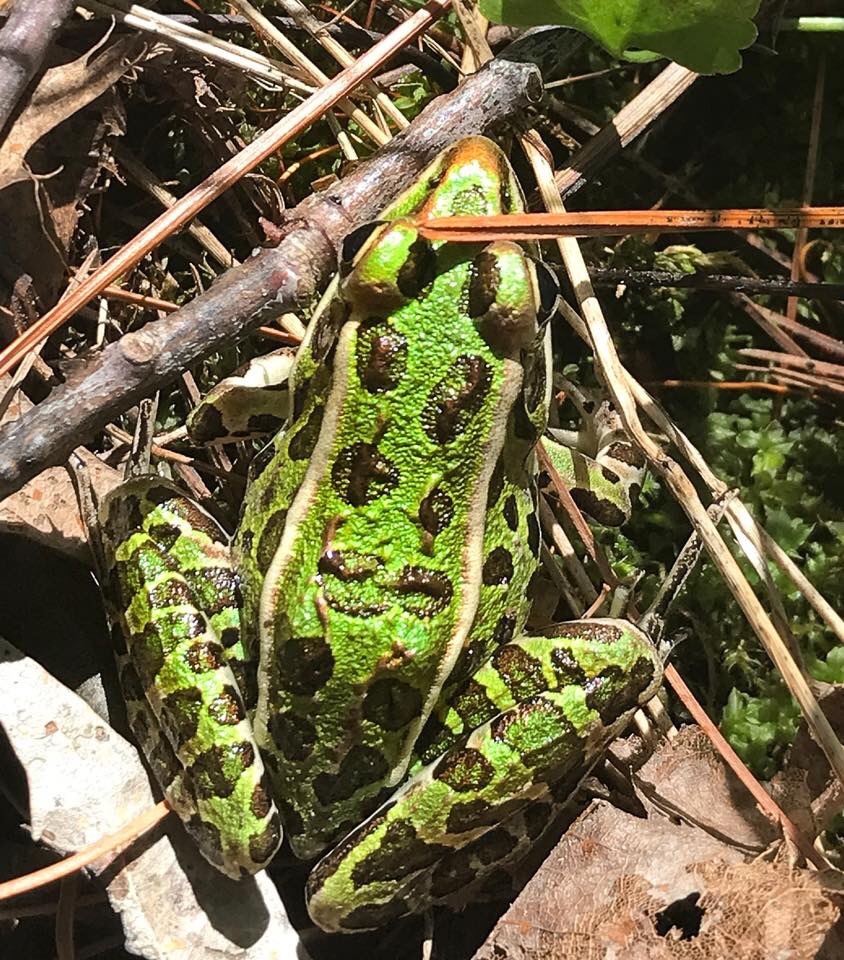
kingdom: Animalia
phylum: Chordata
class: Amphibia
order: Anura
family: Ranidae
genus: Lithobates
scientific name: Lithobates pipiens
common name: Northern leopard frog
